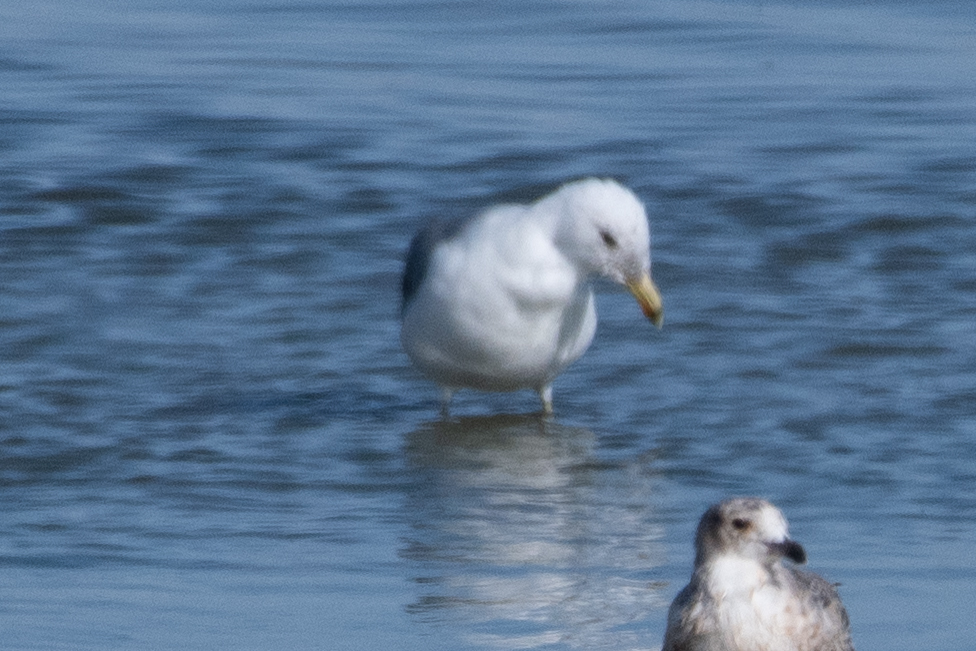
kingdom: Animalia
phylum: Chordata
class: Aves
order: Charadriiformes
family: Laridae
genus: Larus
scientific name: Larus californicus
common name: California gull
